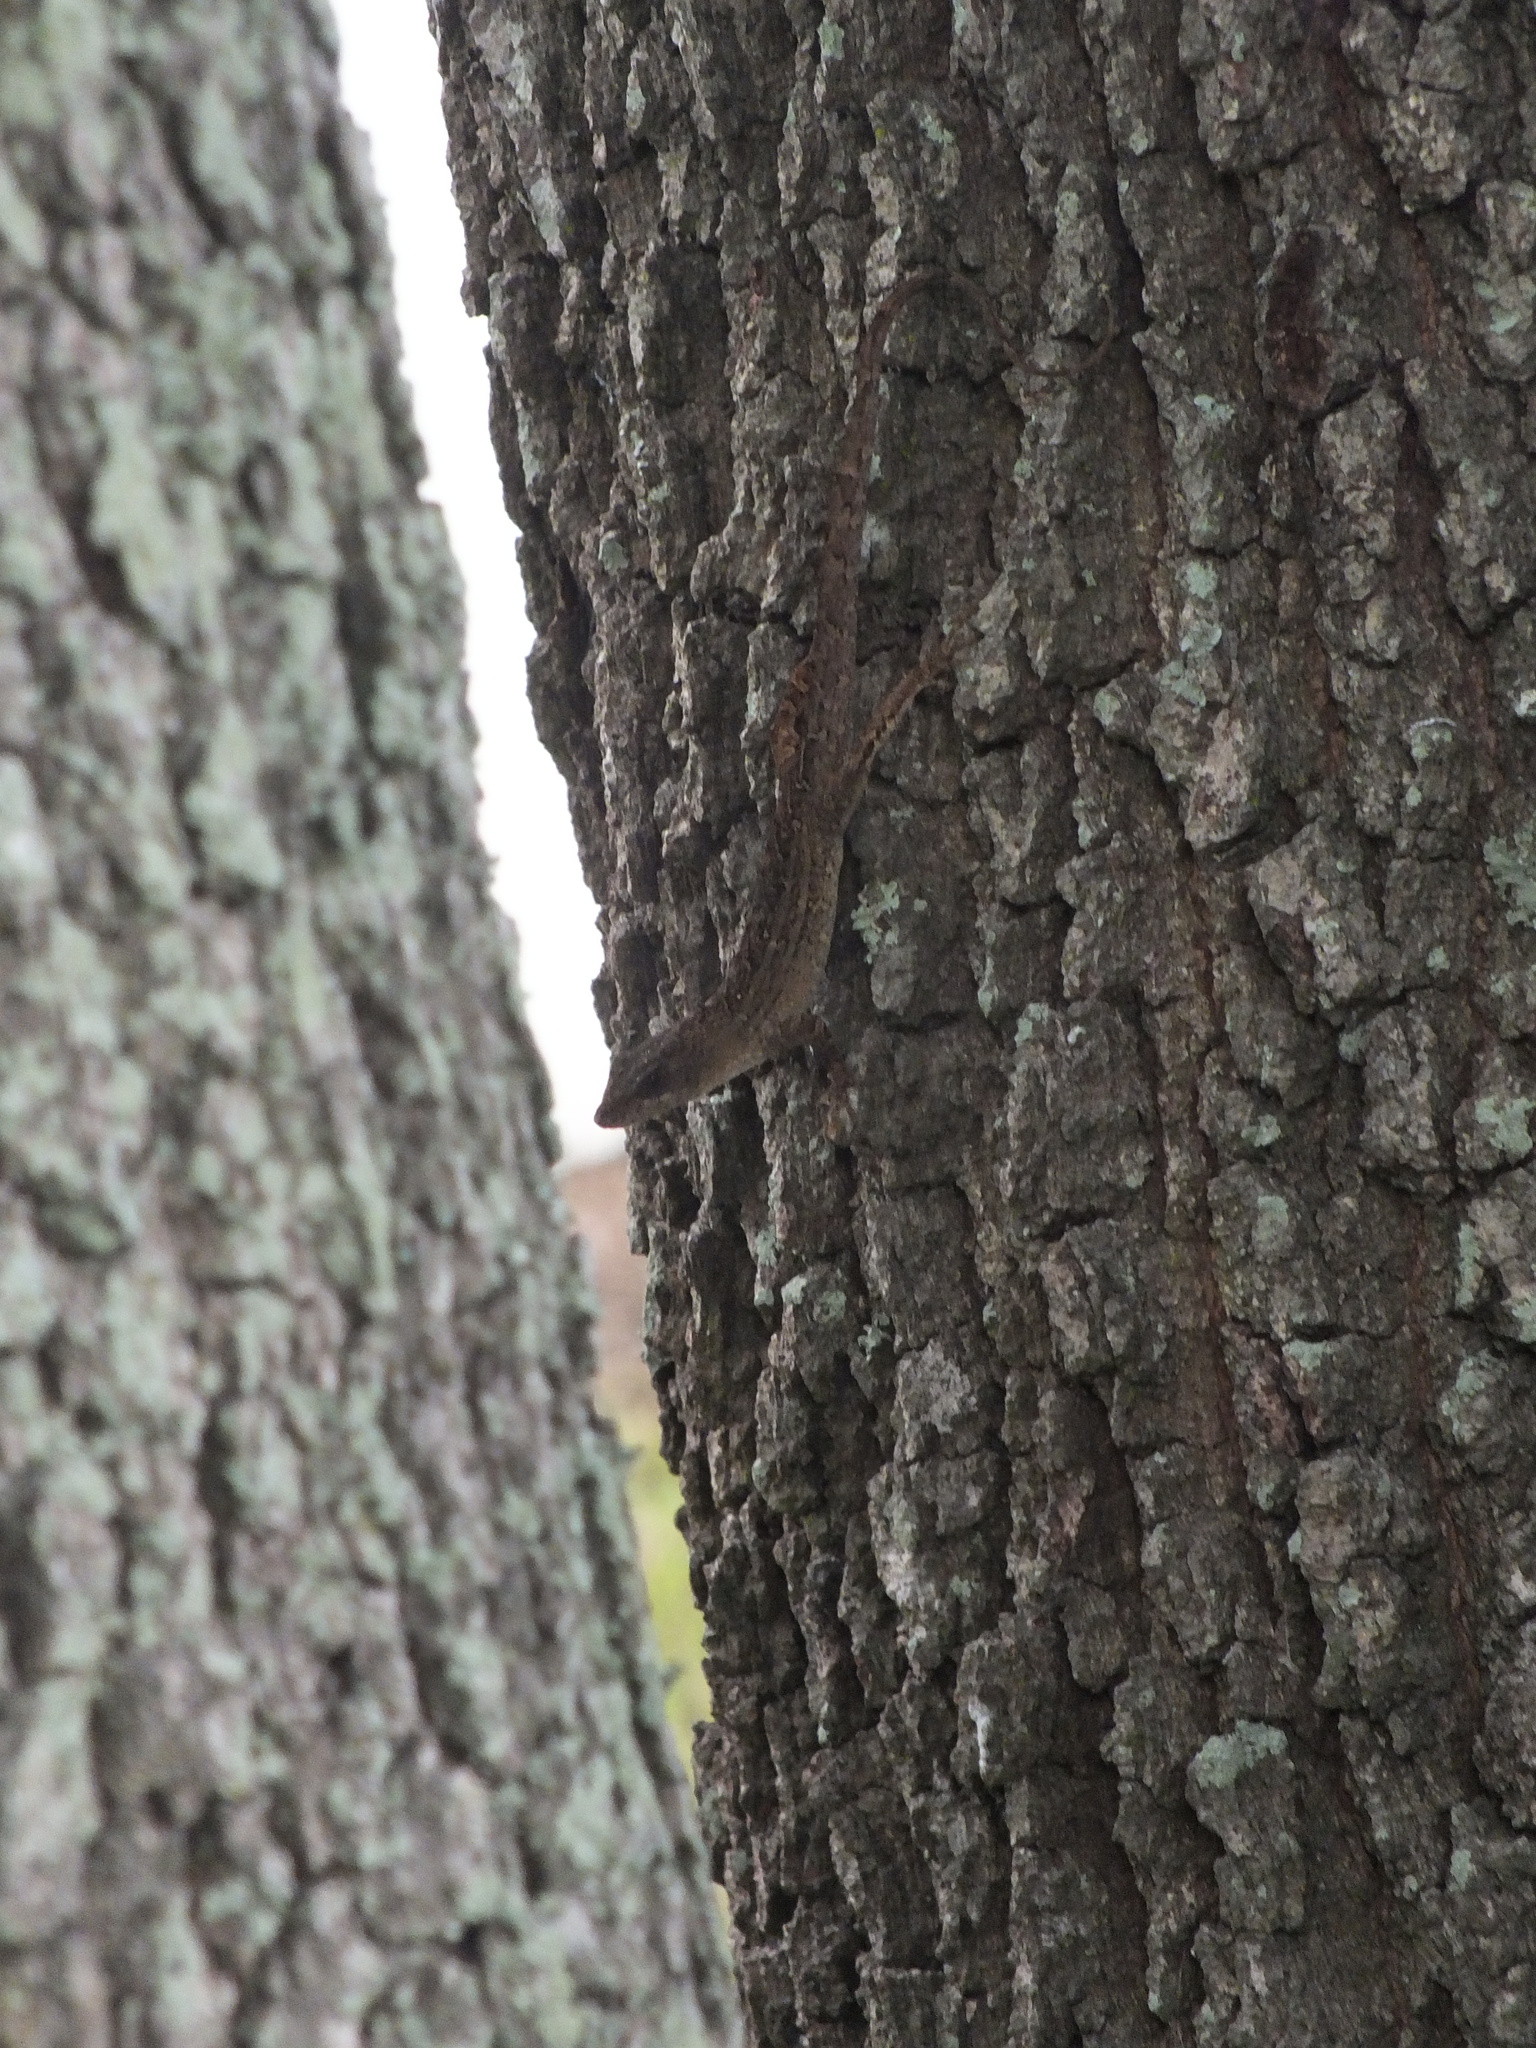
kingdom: Animalia
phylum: Chordata
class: Squamata
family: Dactyloidae
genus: Anolis
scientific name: Anolis sagrei
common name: Brown anole
